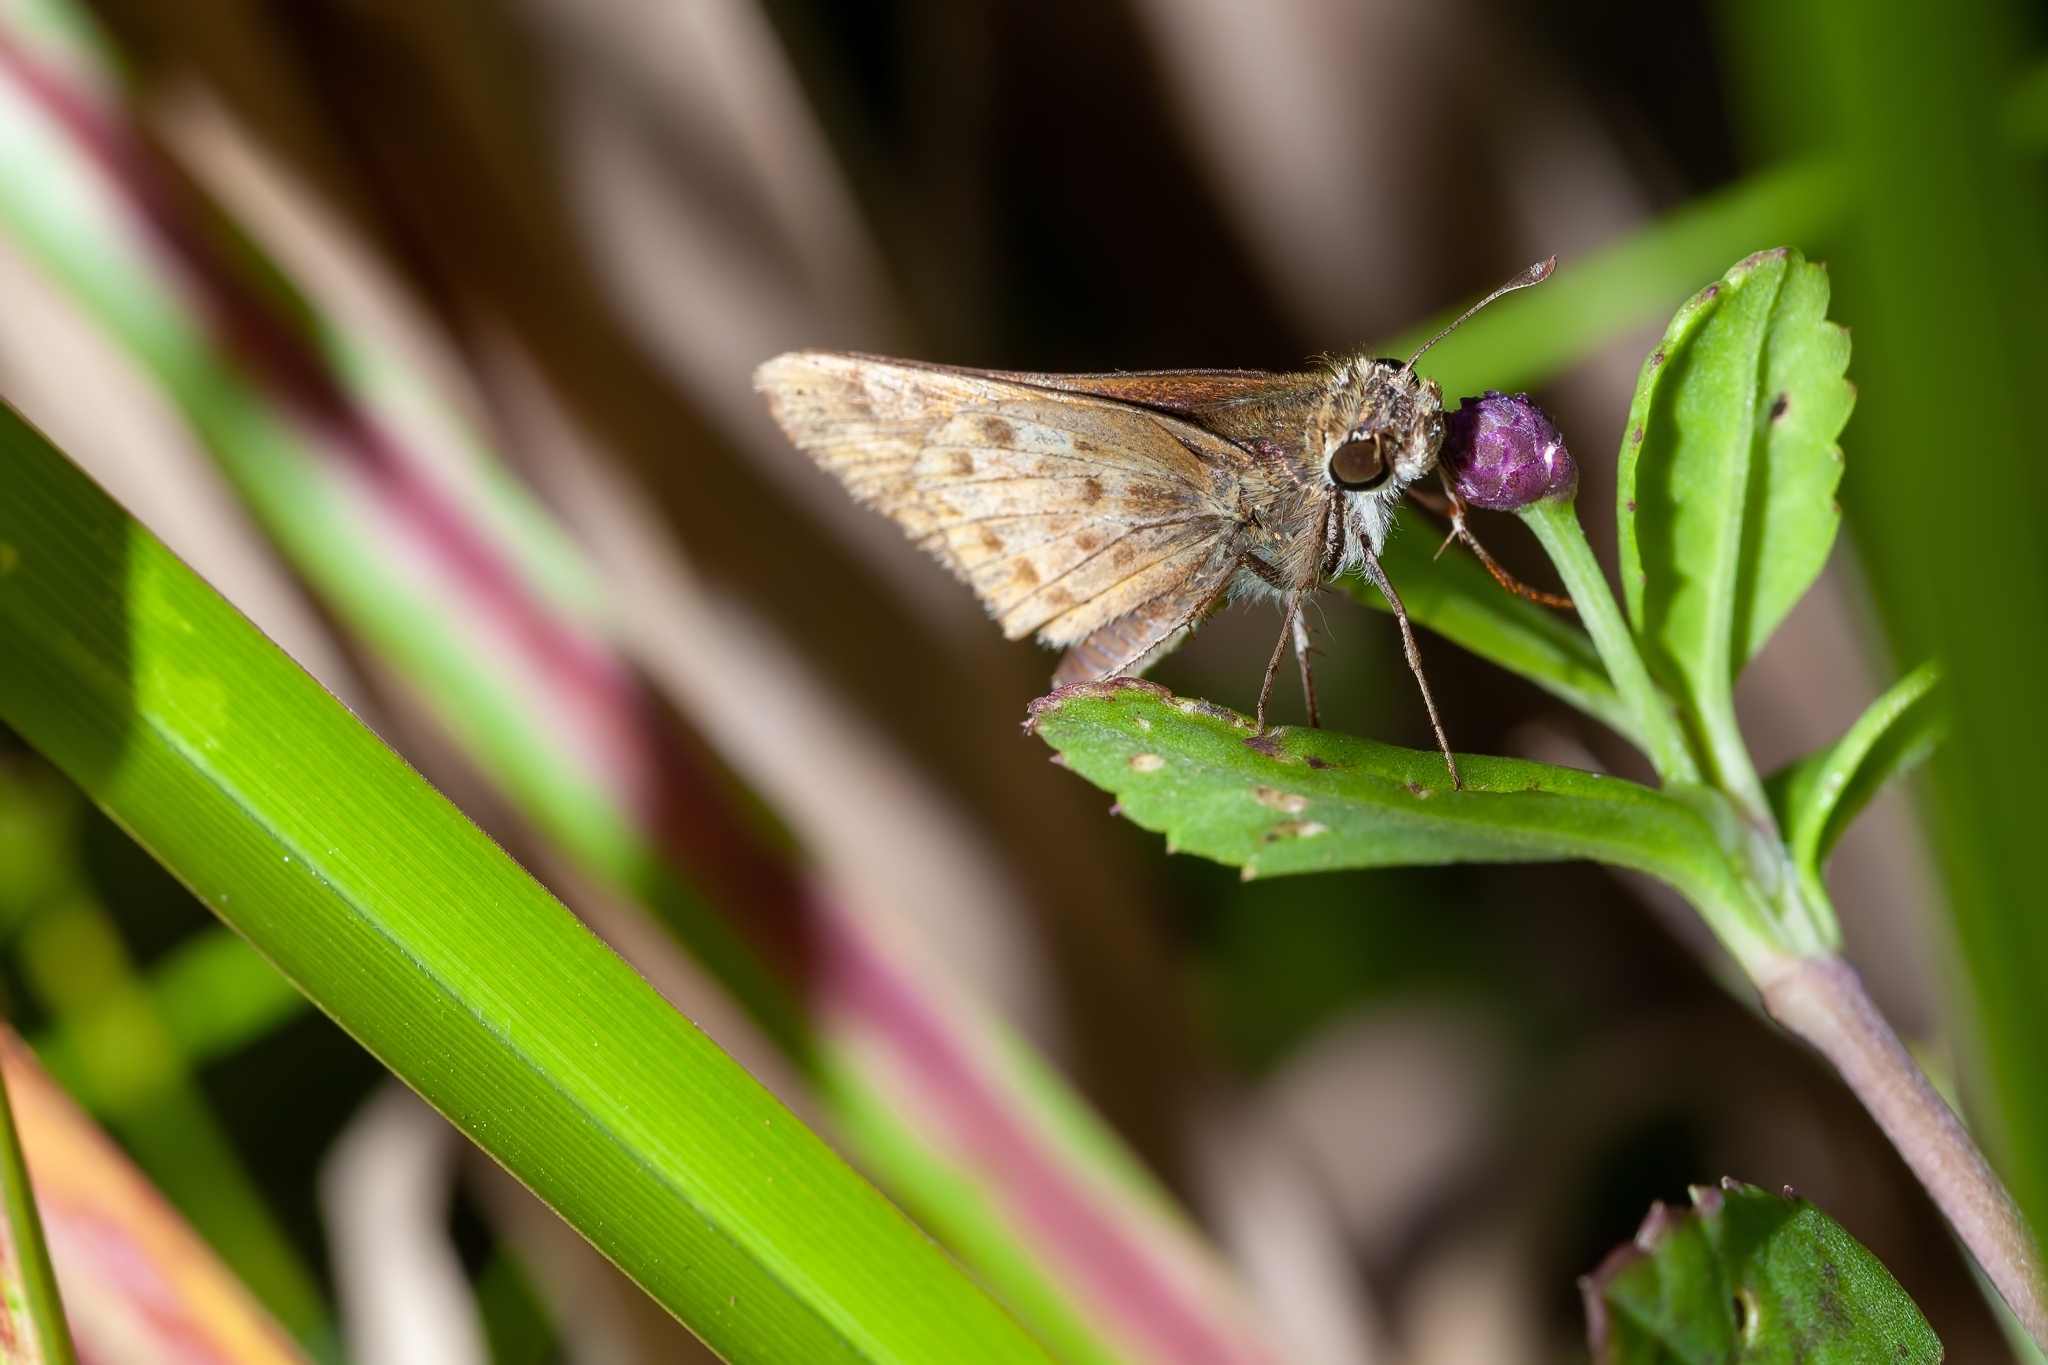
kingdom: Animalia
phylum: Arthropoda
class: Insecta
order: Lepidoptera
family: Hesperiidae
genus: Hylephila
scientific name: Hylephila phyleus
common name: Fiery skipper
